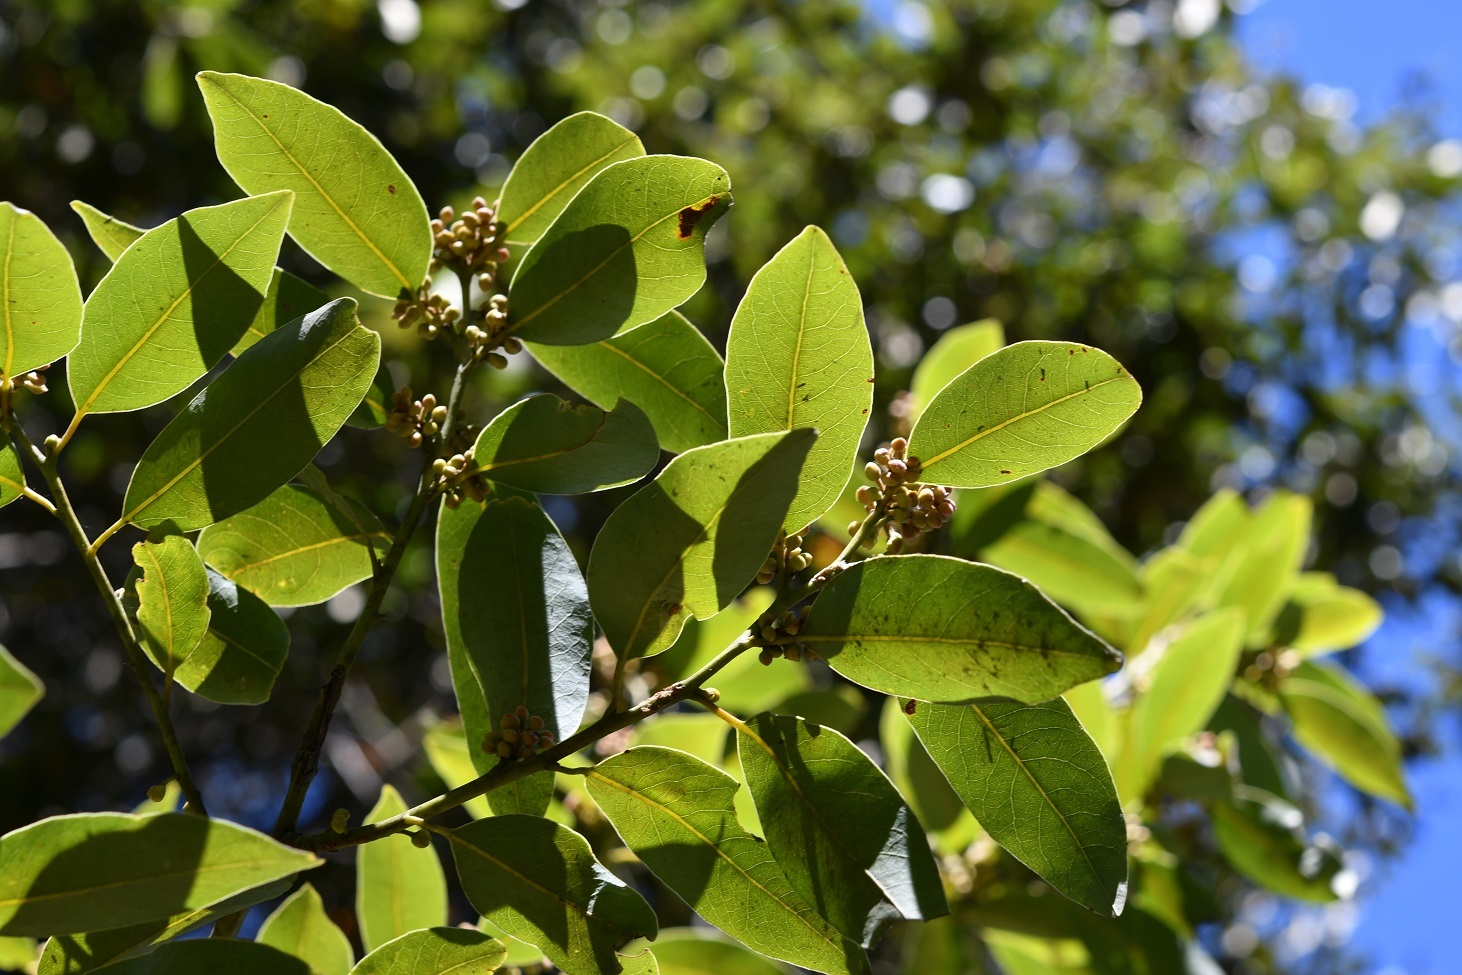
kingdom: Plantae
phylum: Tracheophyta
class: Magnoliopsida
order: Laurales
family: Lauraceae
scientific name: Lauraceae
